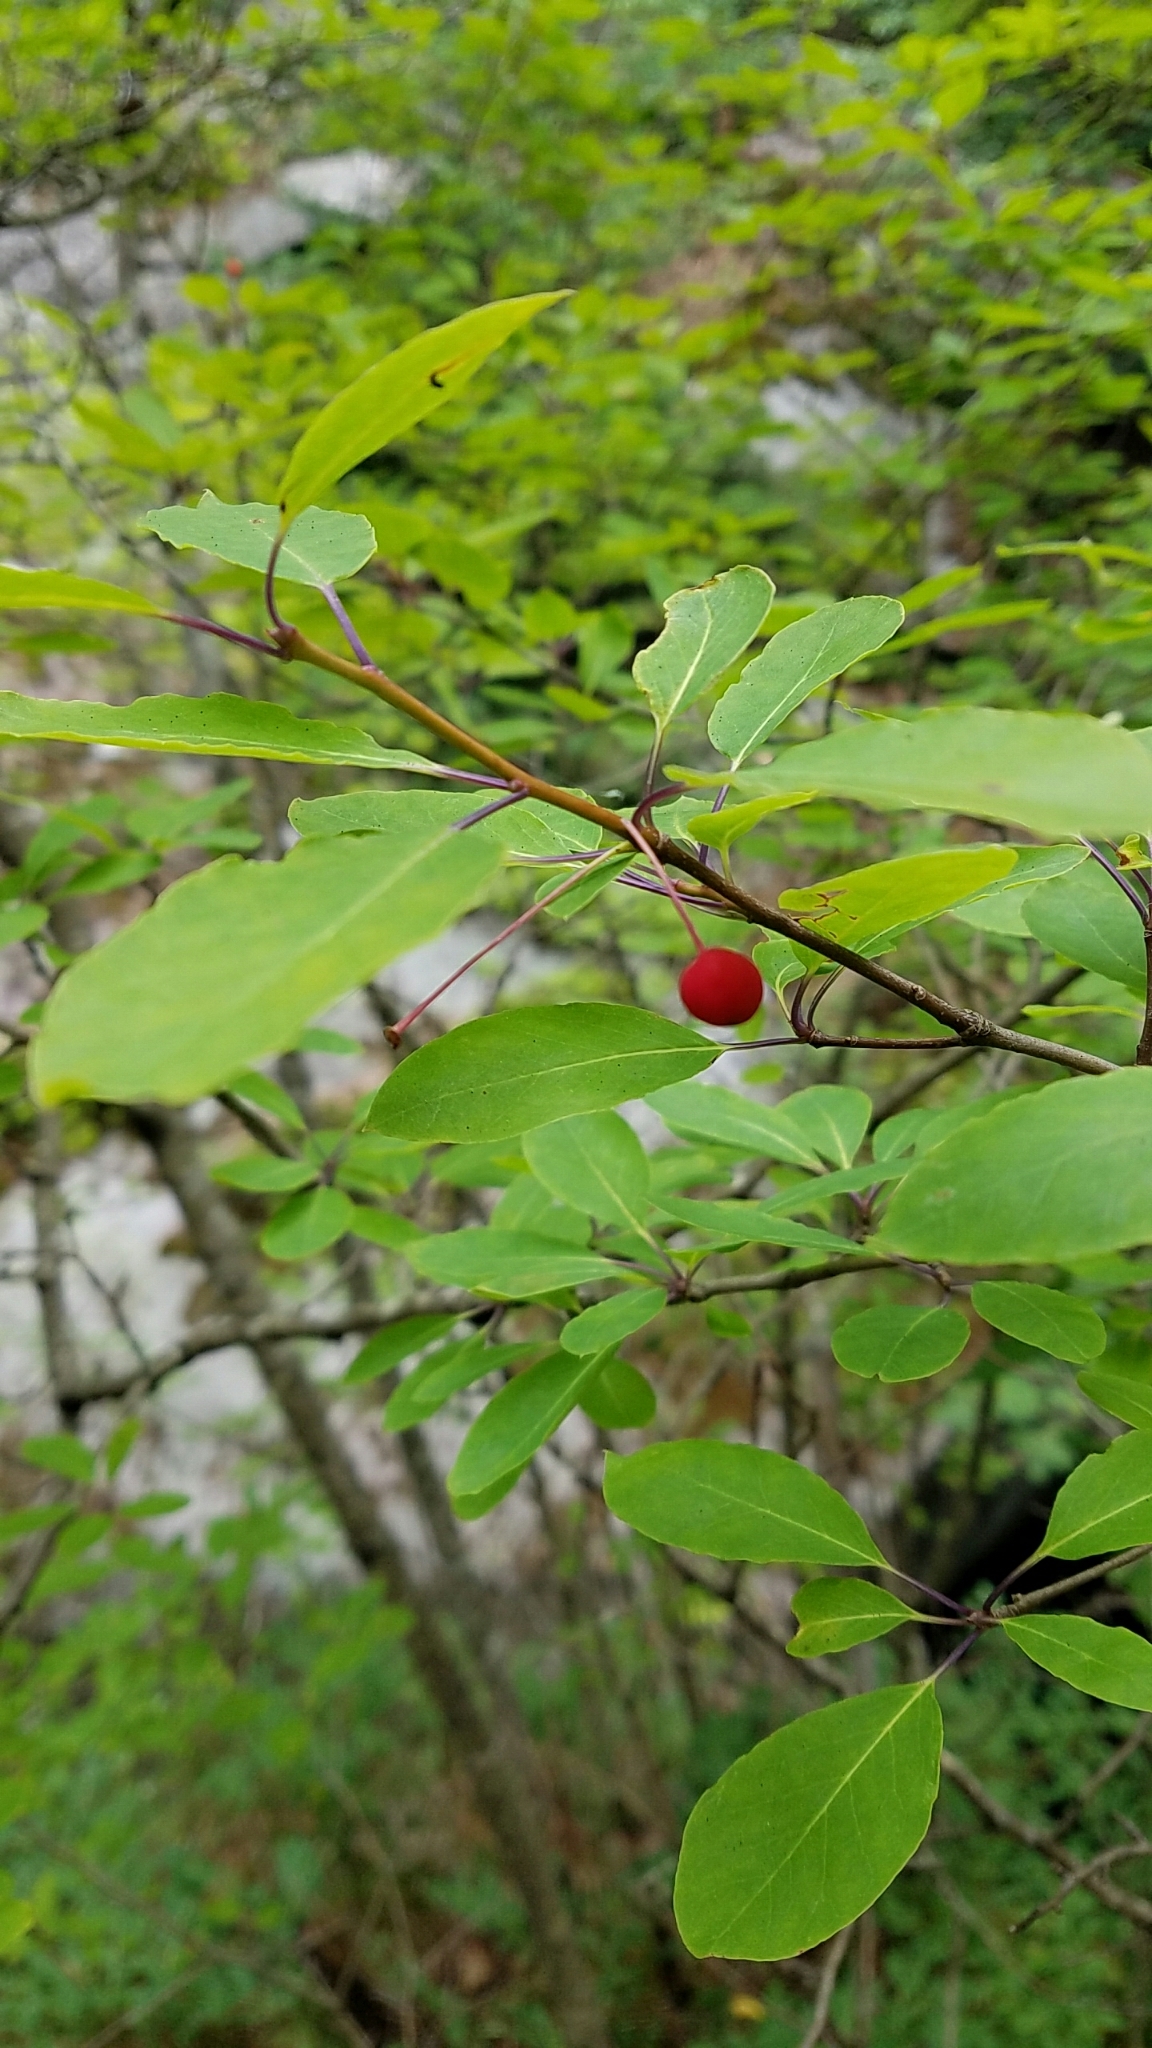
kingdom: Plantae
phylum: Tracheophyta
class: Magnoliopsida
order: Aquifoliales
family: Aquifoliaceae
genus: Ilex
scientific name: Ilex mucronata
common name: Catberry
